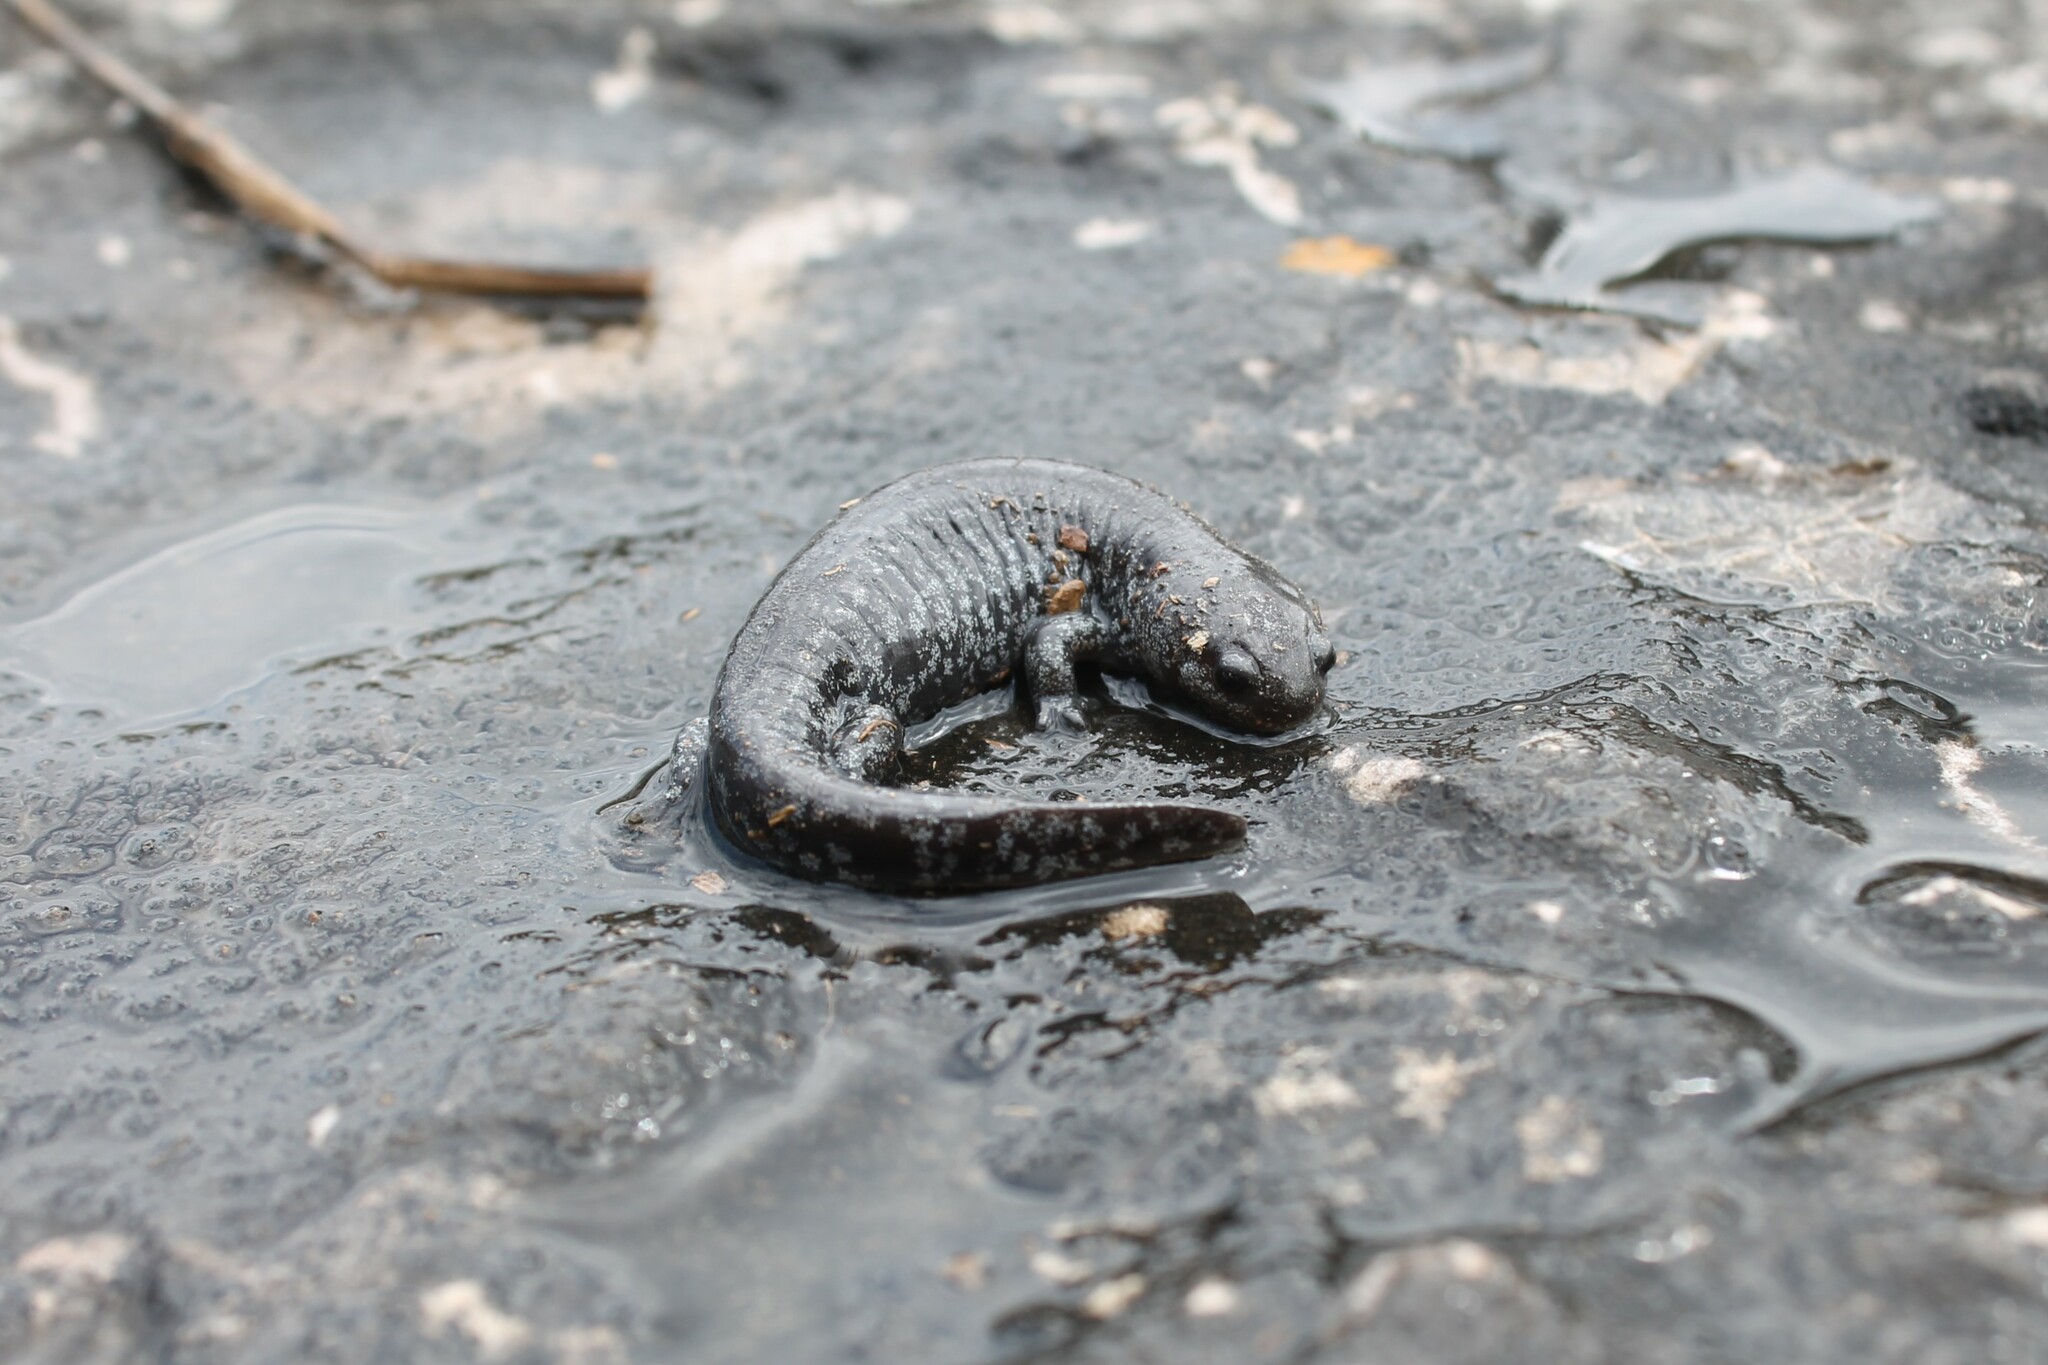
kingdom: Animalia
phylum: Chordata
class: Amphibia
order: Caudata
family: Ambystomatidae
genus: Ambystoma
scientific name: Ambystoma barbouri
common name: Streamside salamander
